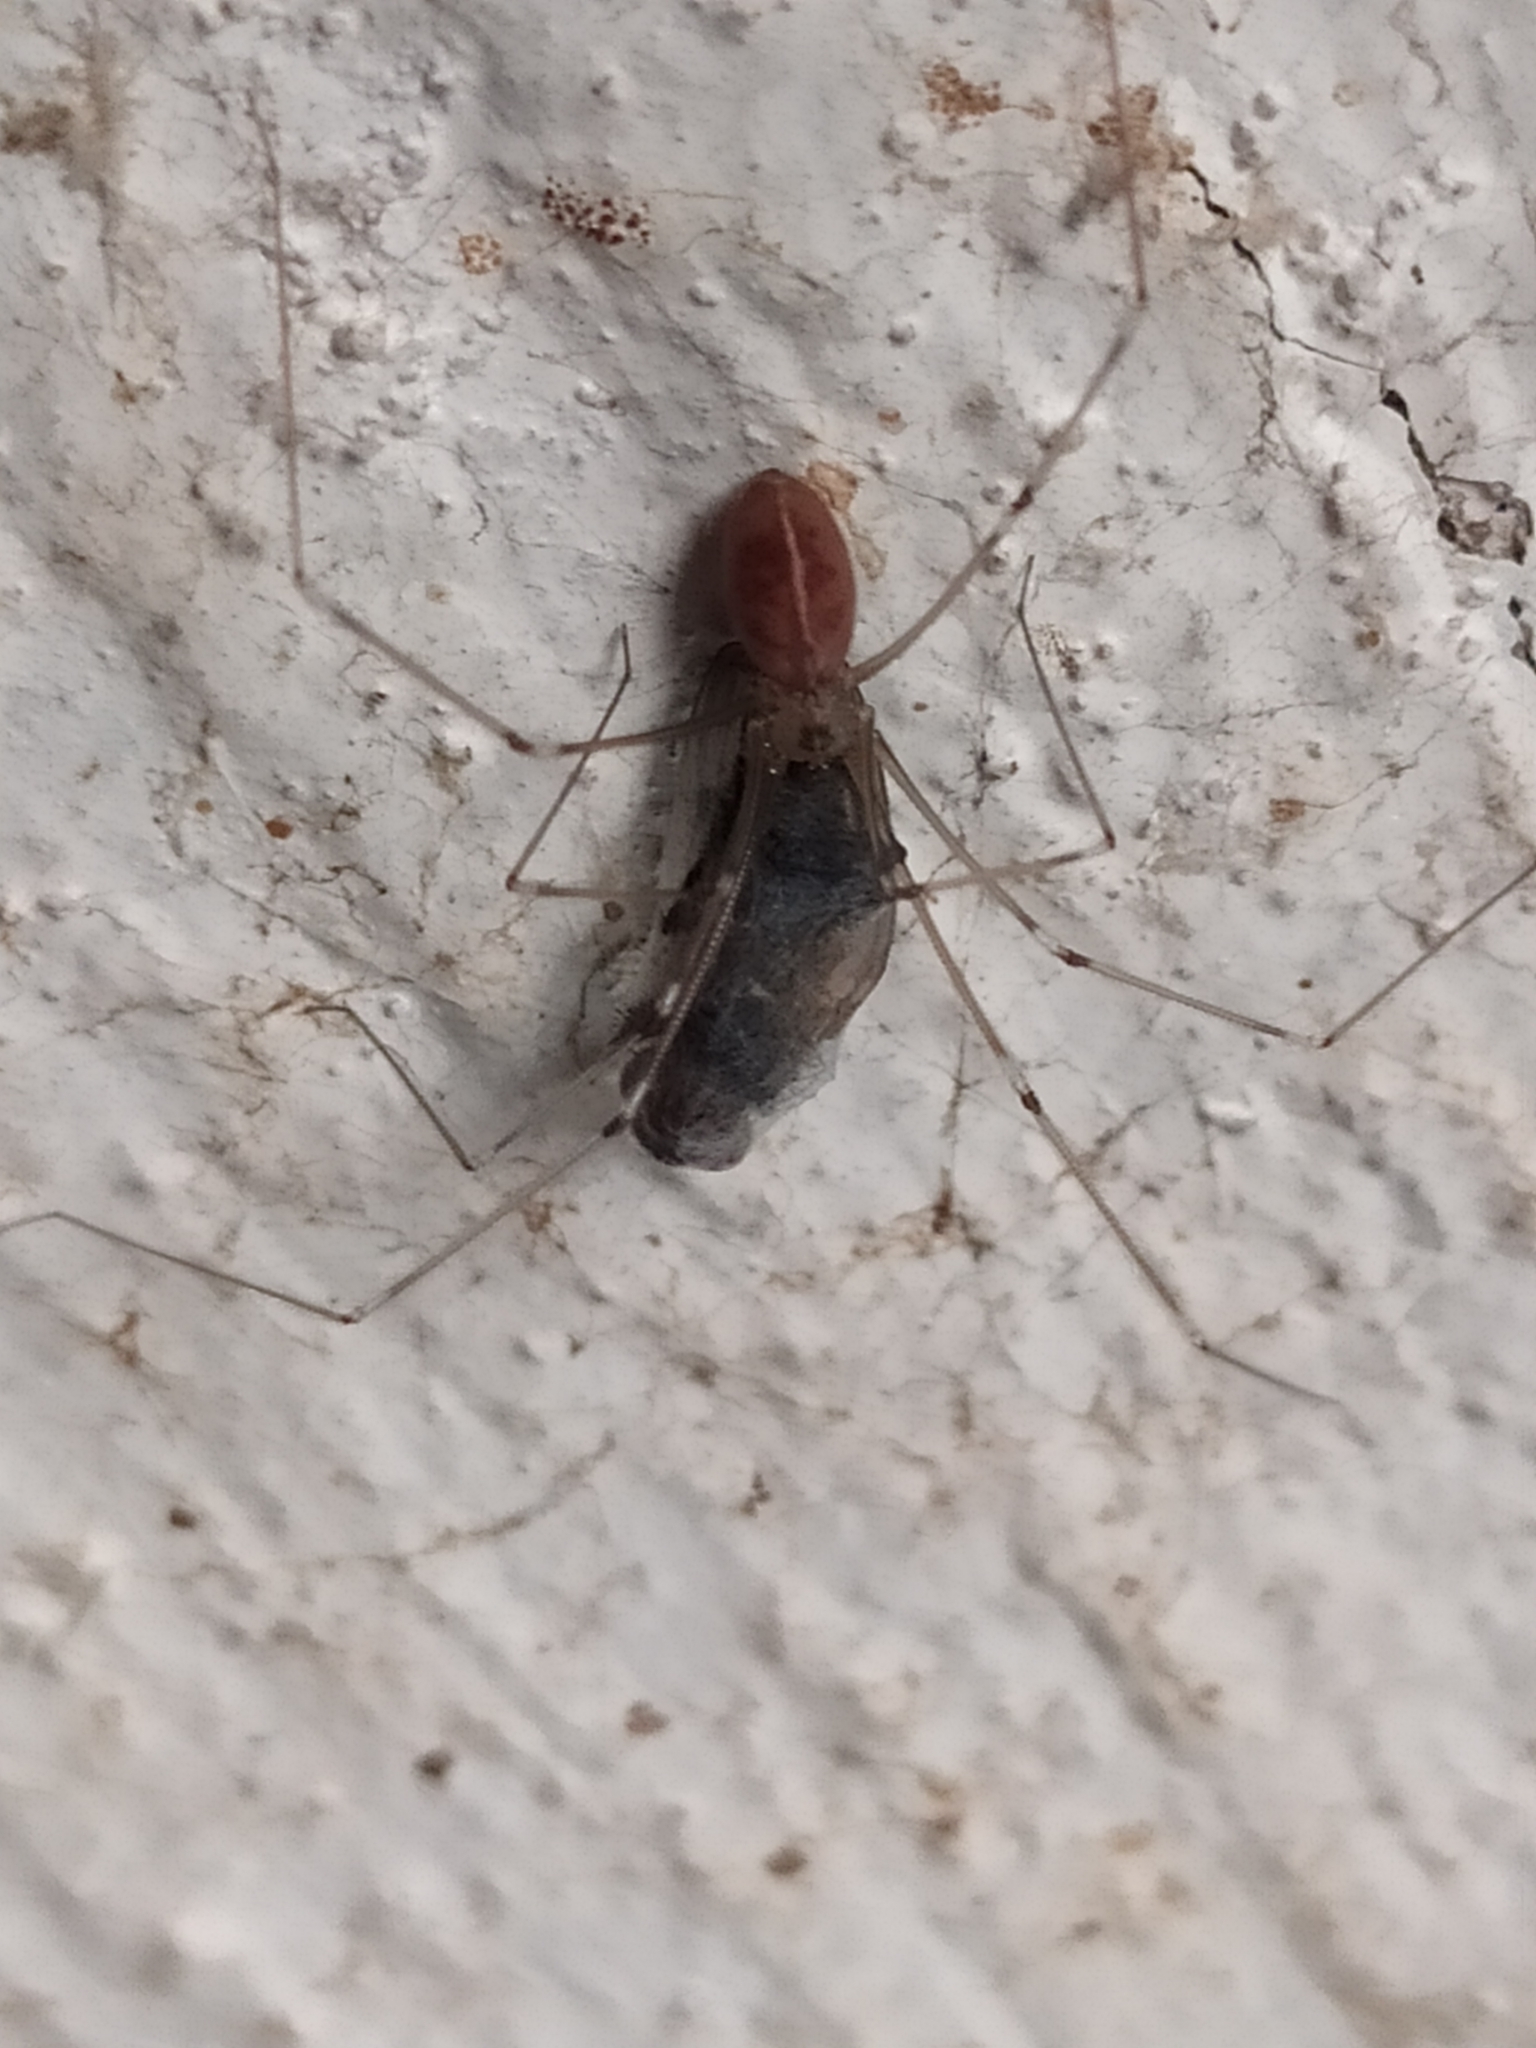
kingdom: Animalia
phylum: Arthropoda
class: Arachnida
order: Araneae
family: Pholcidae
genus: Pholcus
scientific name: Pholcus phalangioides
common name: Longbodied cellar spider
